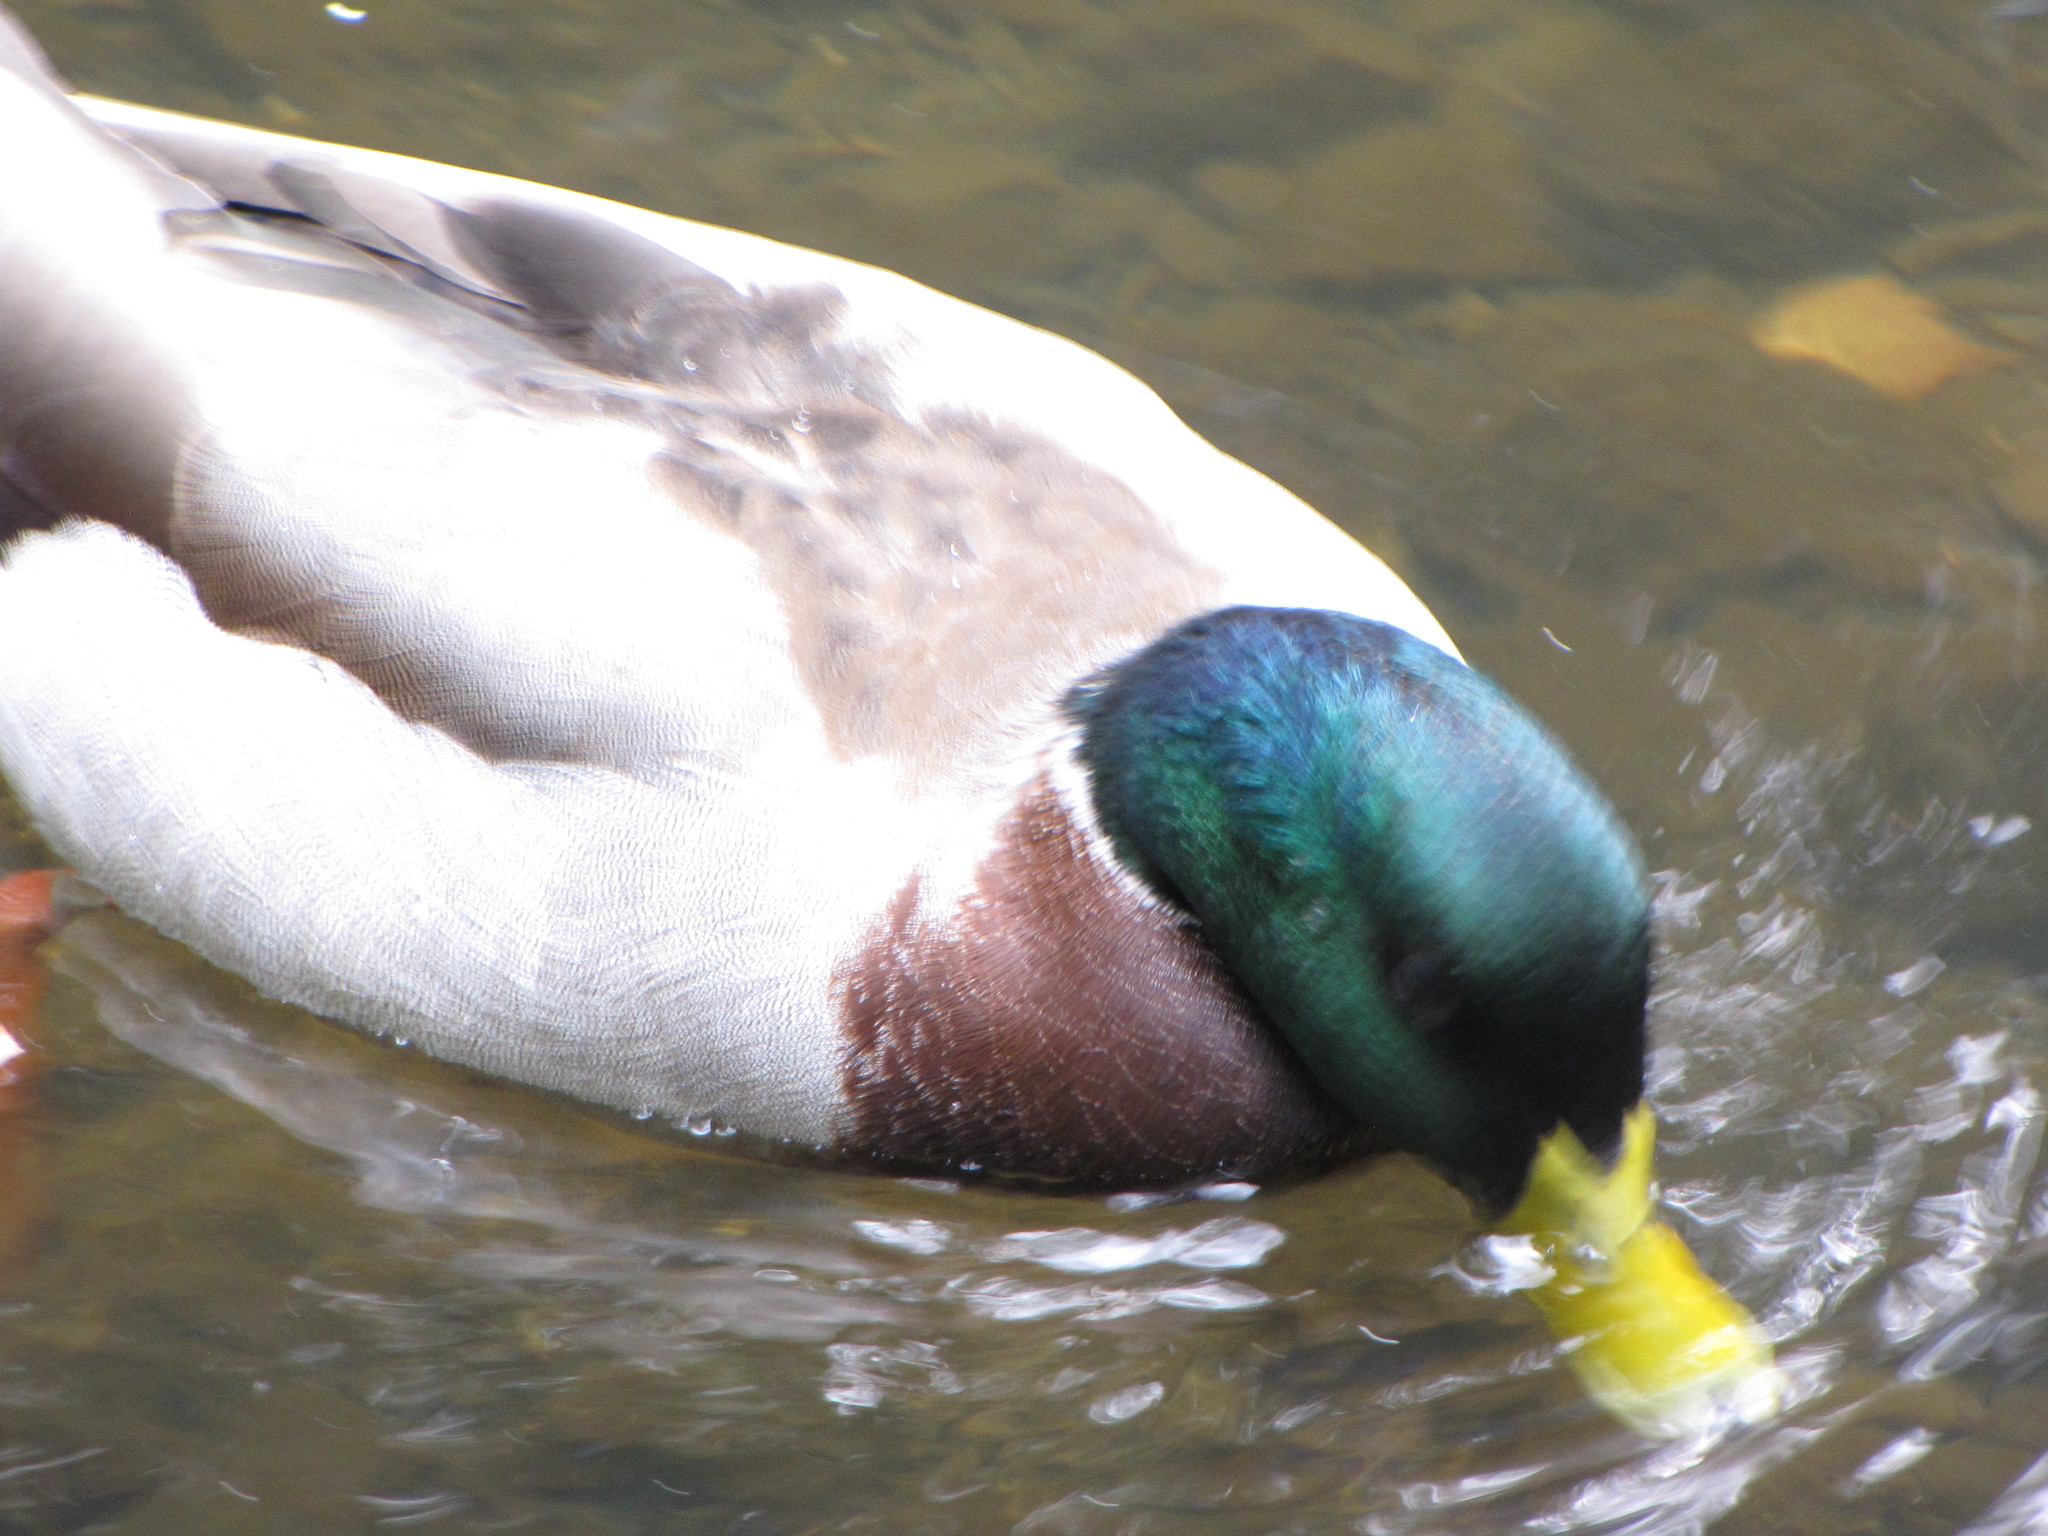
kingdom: Animalia
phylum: Chordata
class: Aves
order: Anseriformes
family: Anatidae
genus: Anas
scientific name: Anas platyrhynchos
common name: Mallard
